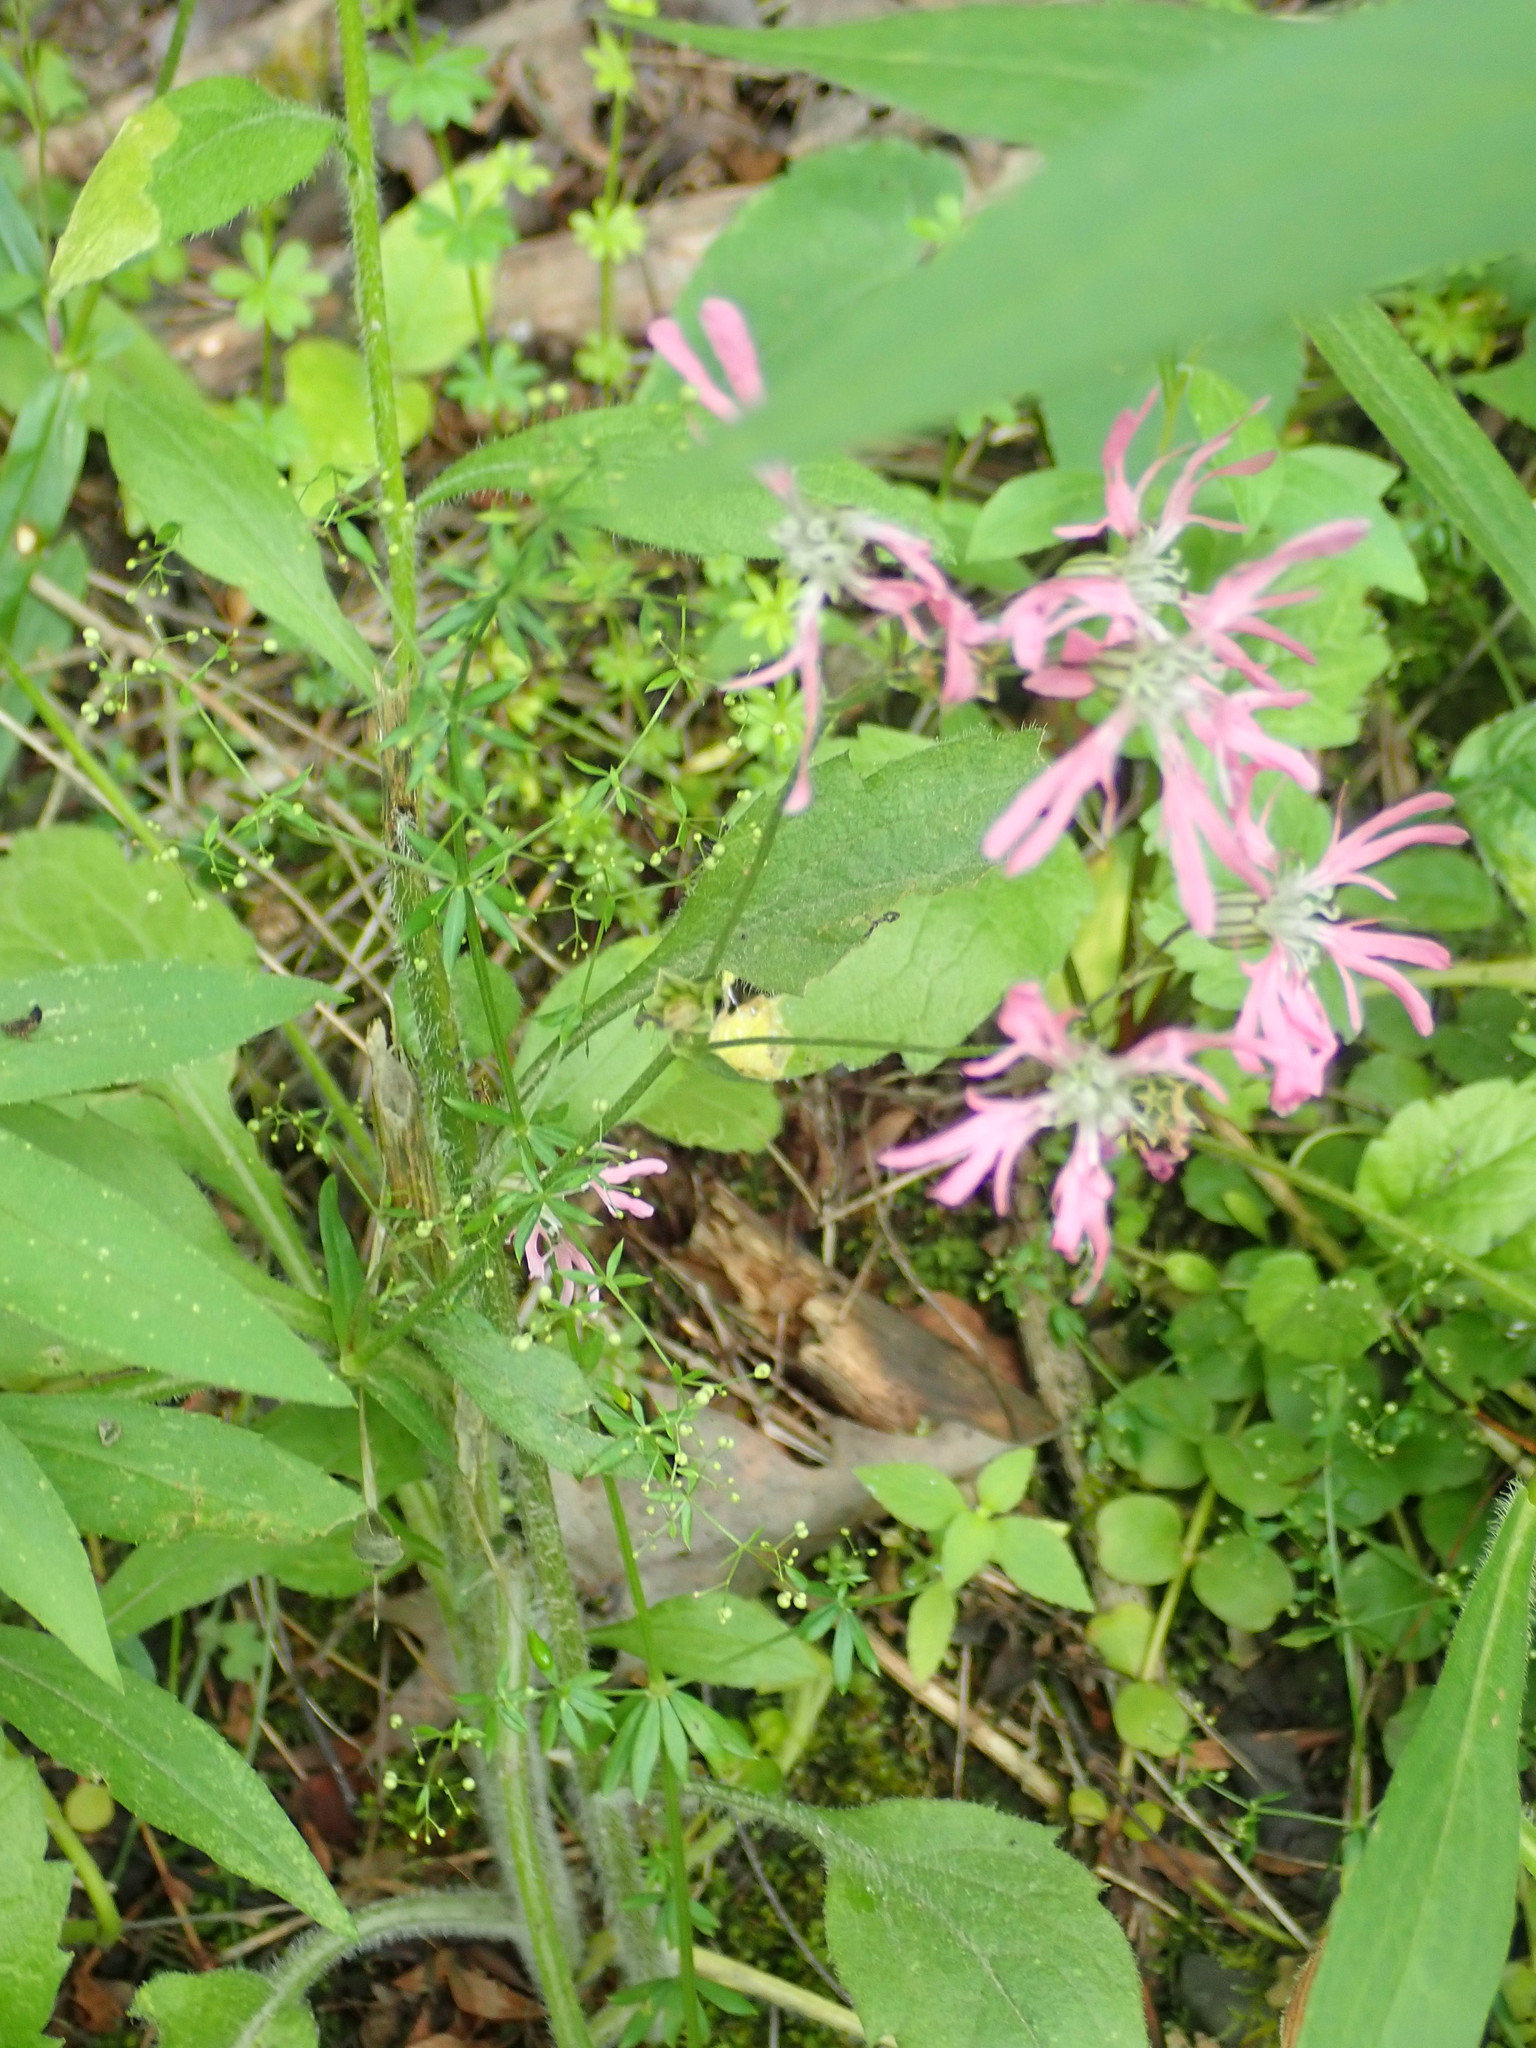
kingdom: Plantae
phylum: Tracheophyta
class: Magnoliopsida
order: Caryophyllales
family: Caryophyllaceae
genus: Silene
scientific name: Silene flos-cuculi
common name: Ragged-robin
